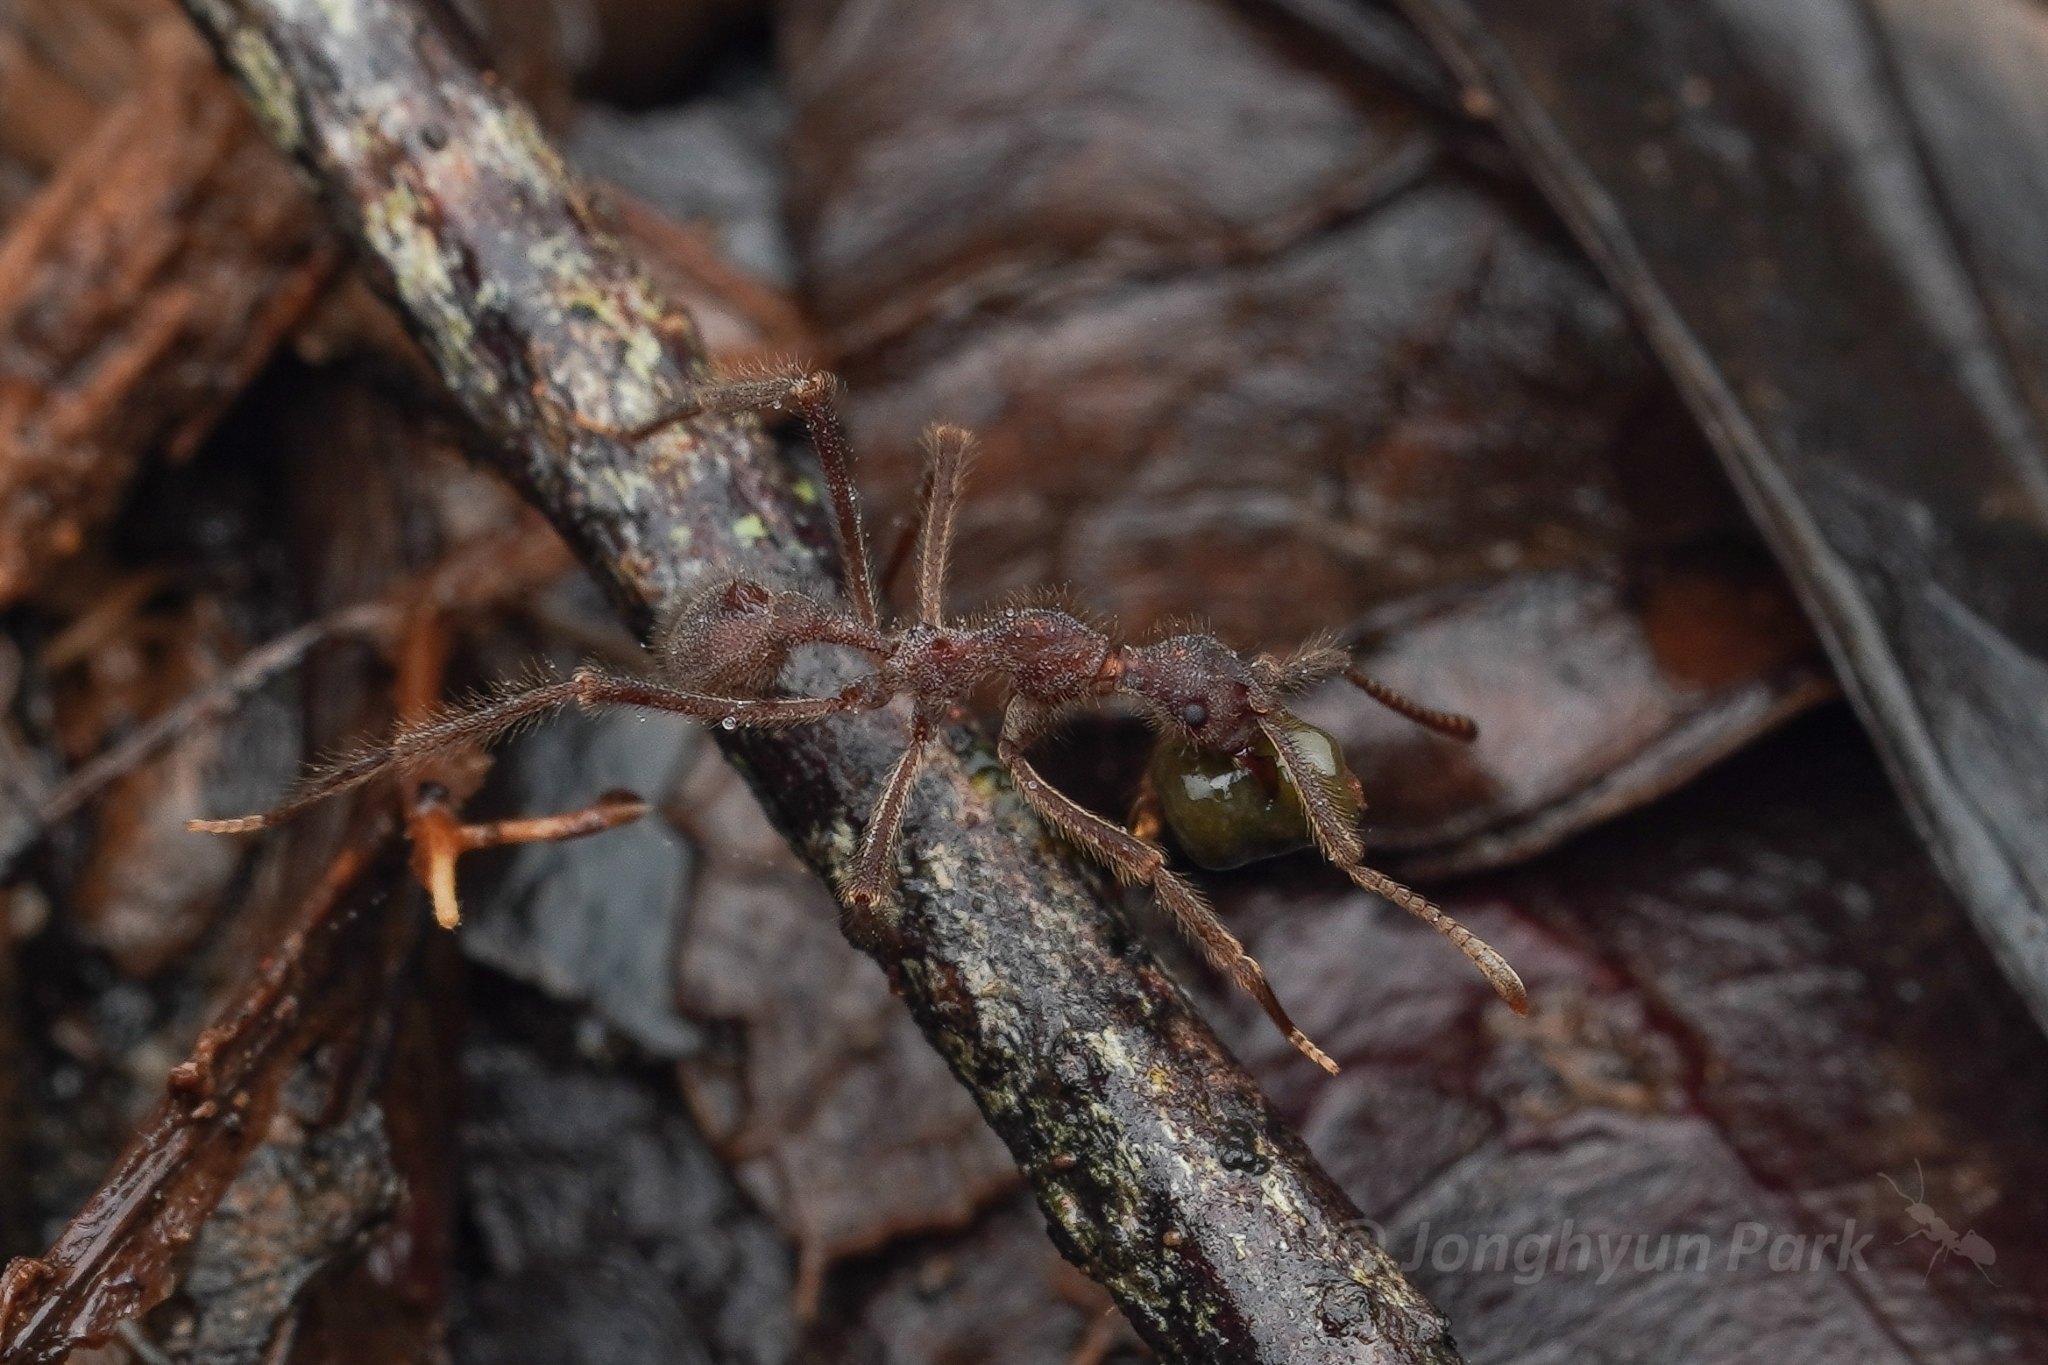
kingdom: Animalia
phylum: Arthropoda
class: Insecta
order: Hymenoptera
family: Formicidae
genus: Apterostigma
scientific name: Apterostigma urichii
